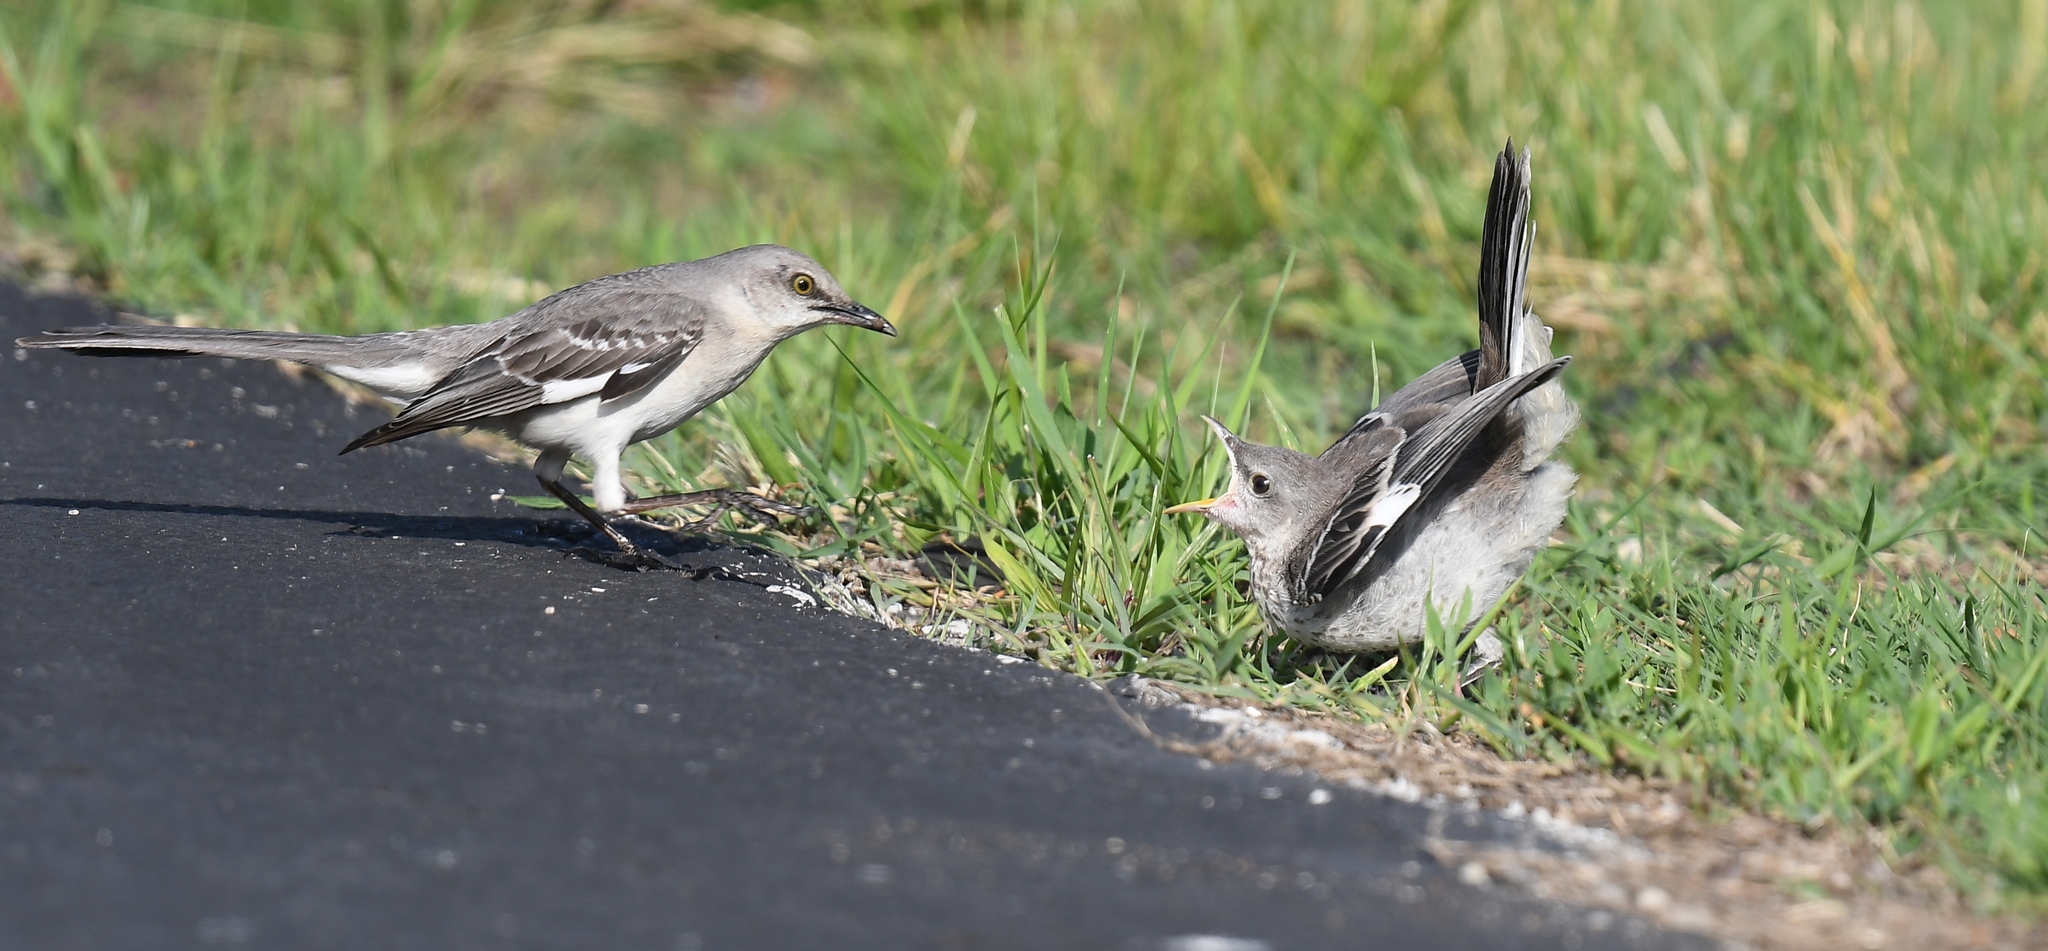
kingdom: Animalia
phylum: Chordata
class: Aves
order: Passeriformes
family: Mimidae
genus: Mimus
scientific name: Mimus polyglottos
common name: Northern mockingbird
